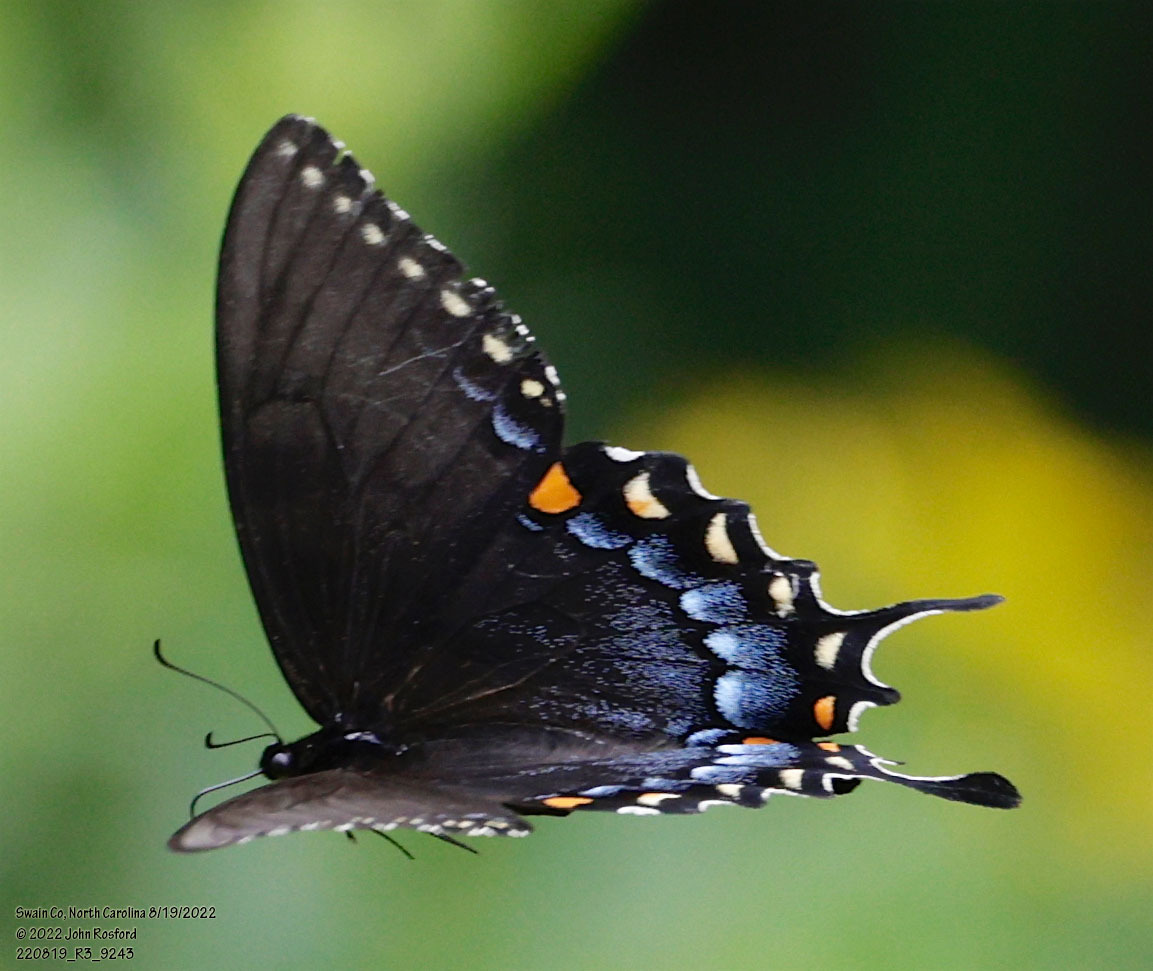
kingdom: Animalia
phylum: Arthropoda
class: Insecta
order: Lepidoptera
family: Papilionidae
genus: Papilio
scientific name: Papilio glaucus
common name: Tiger swallowtail
